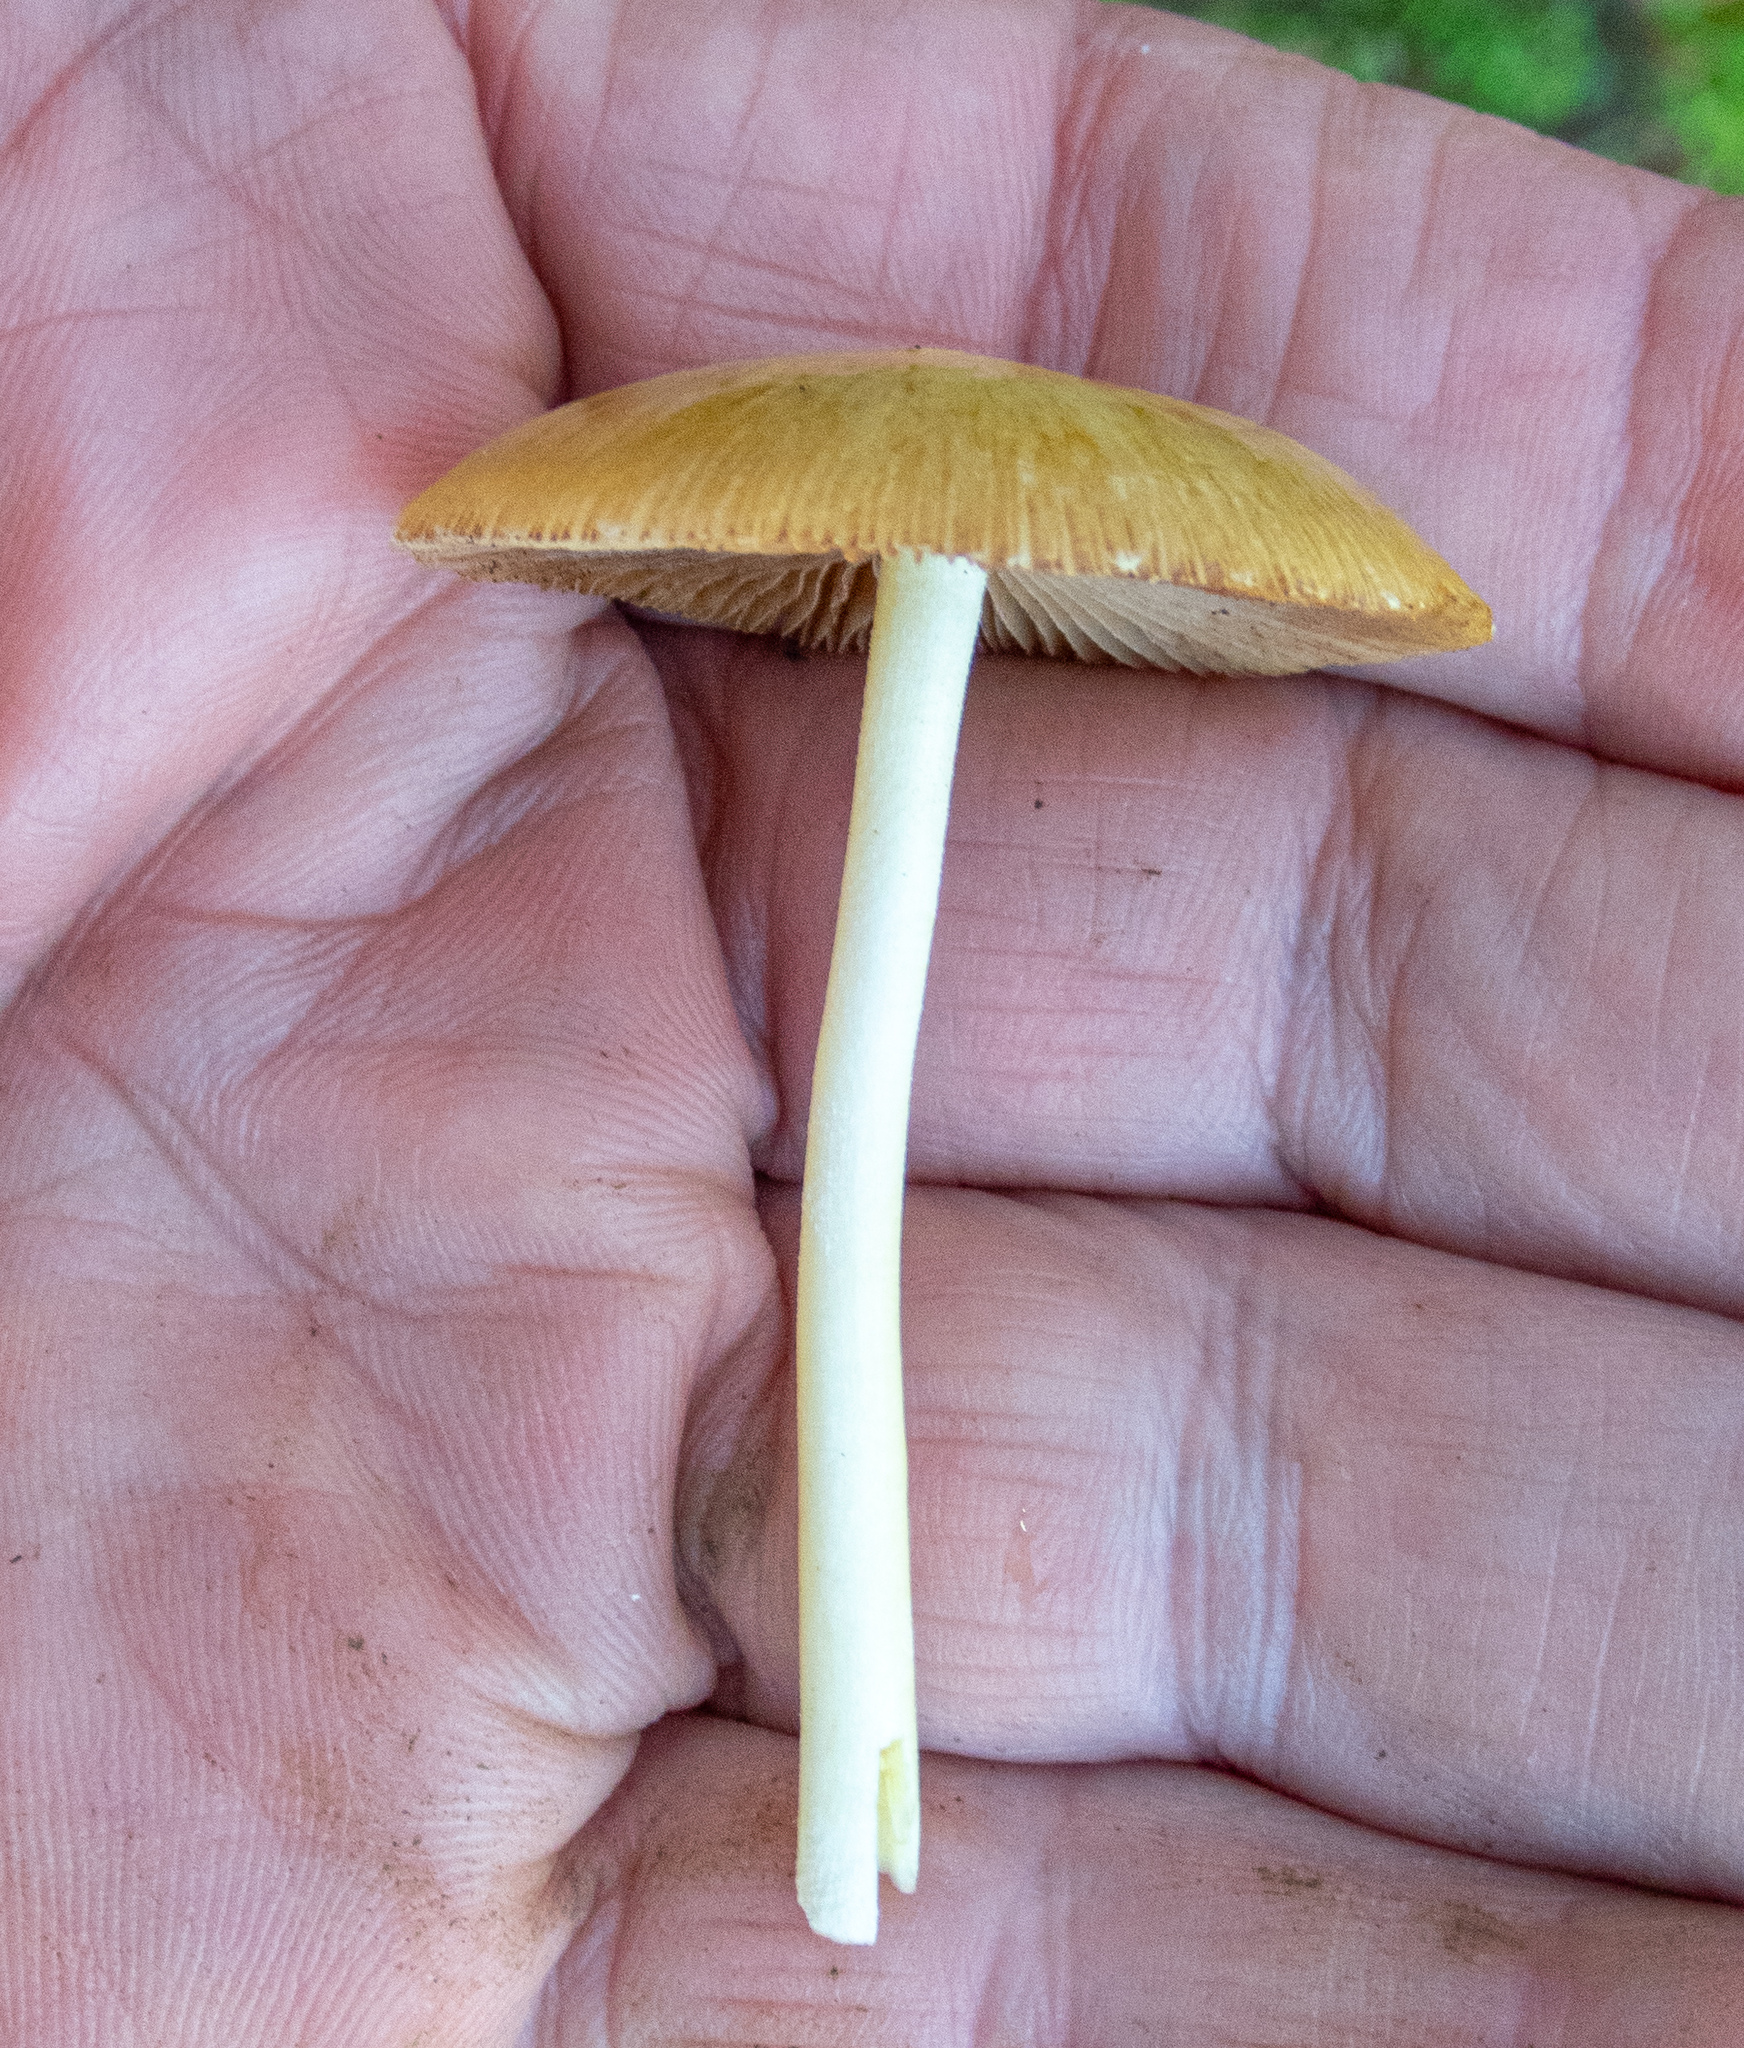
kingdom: Fungi
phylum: Basidiomycota
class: Agaricomycetes
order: Agaricales
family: Bolbitiaceae
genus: Bolbitius
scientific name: Bolbitius titubans
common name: Yellow fieldcap
